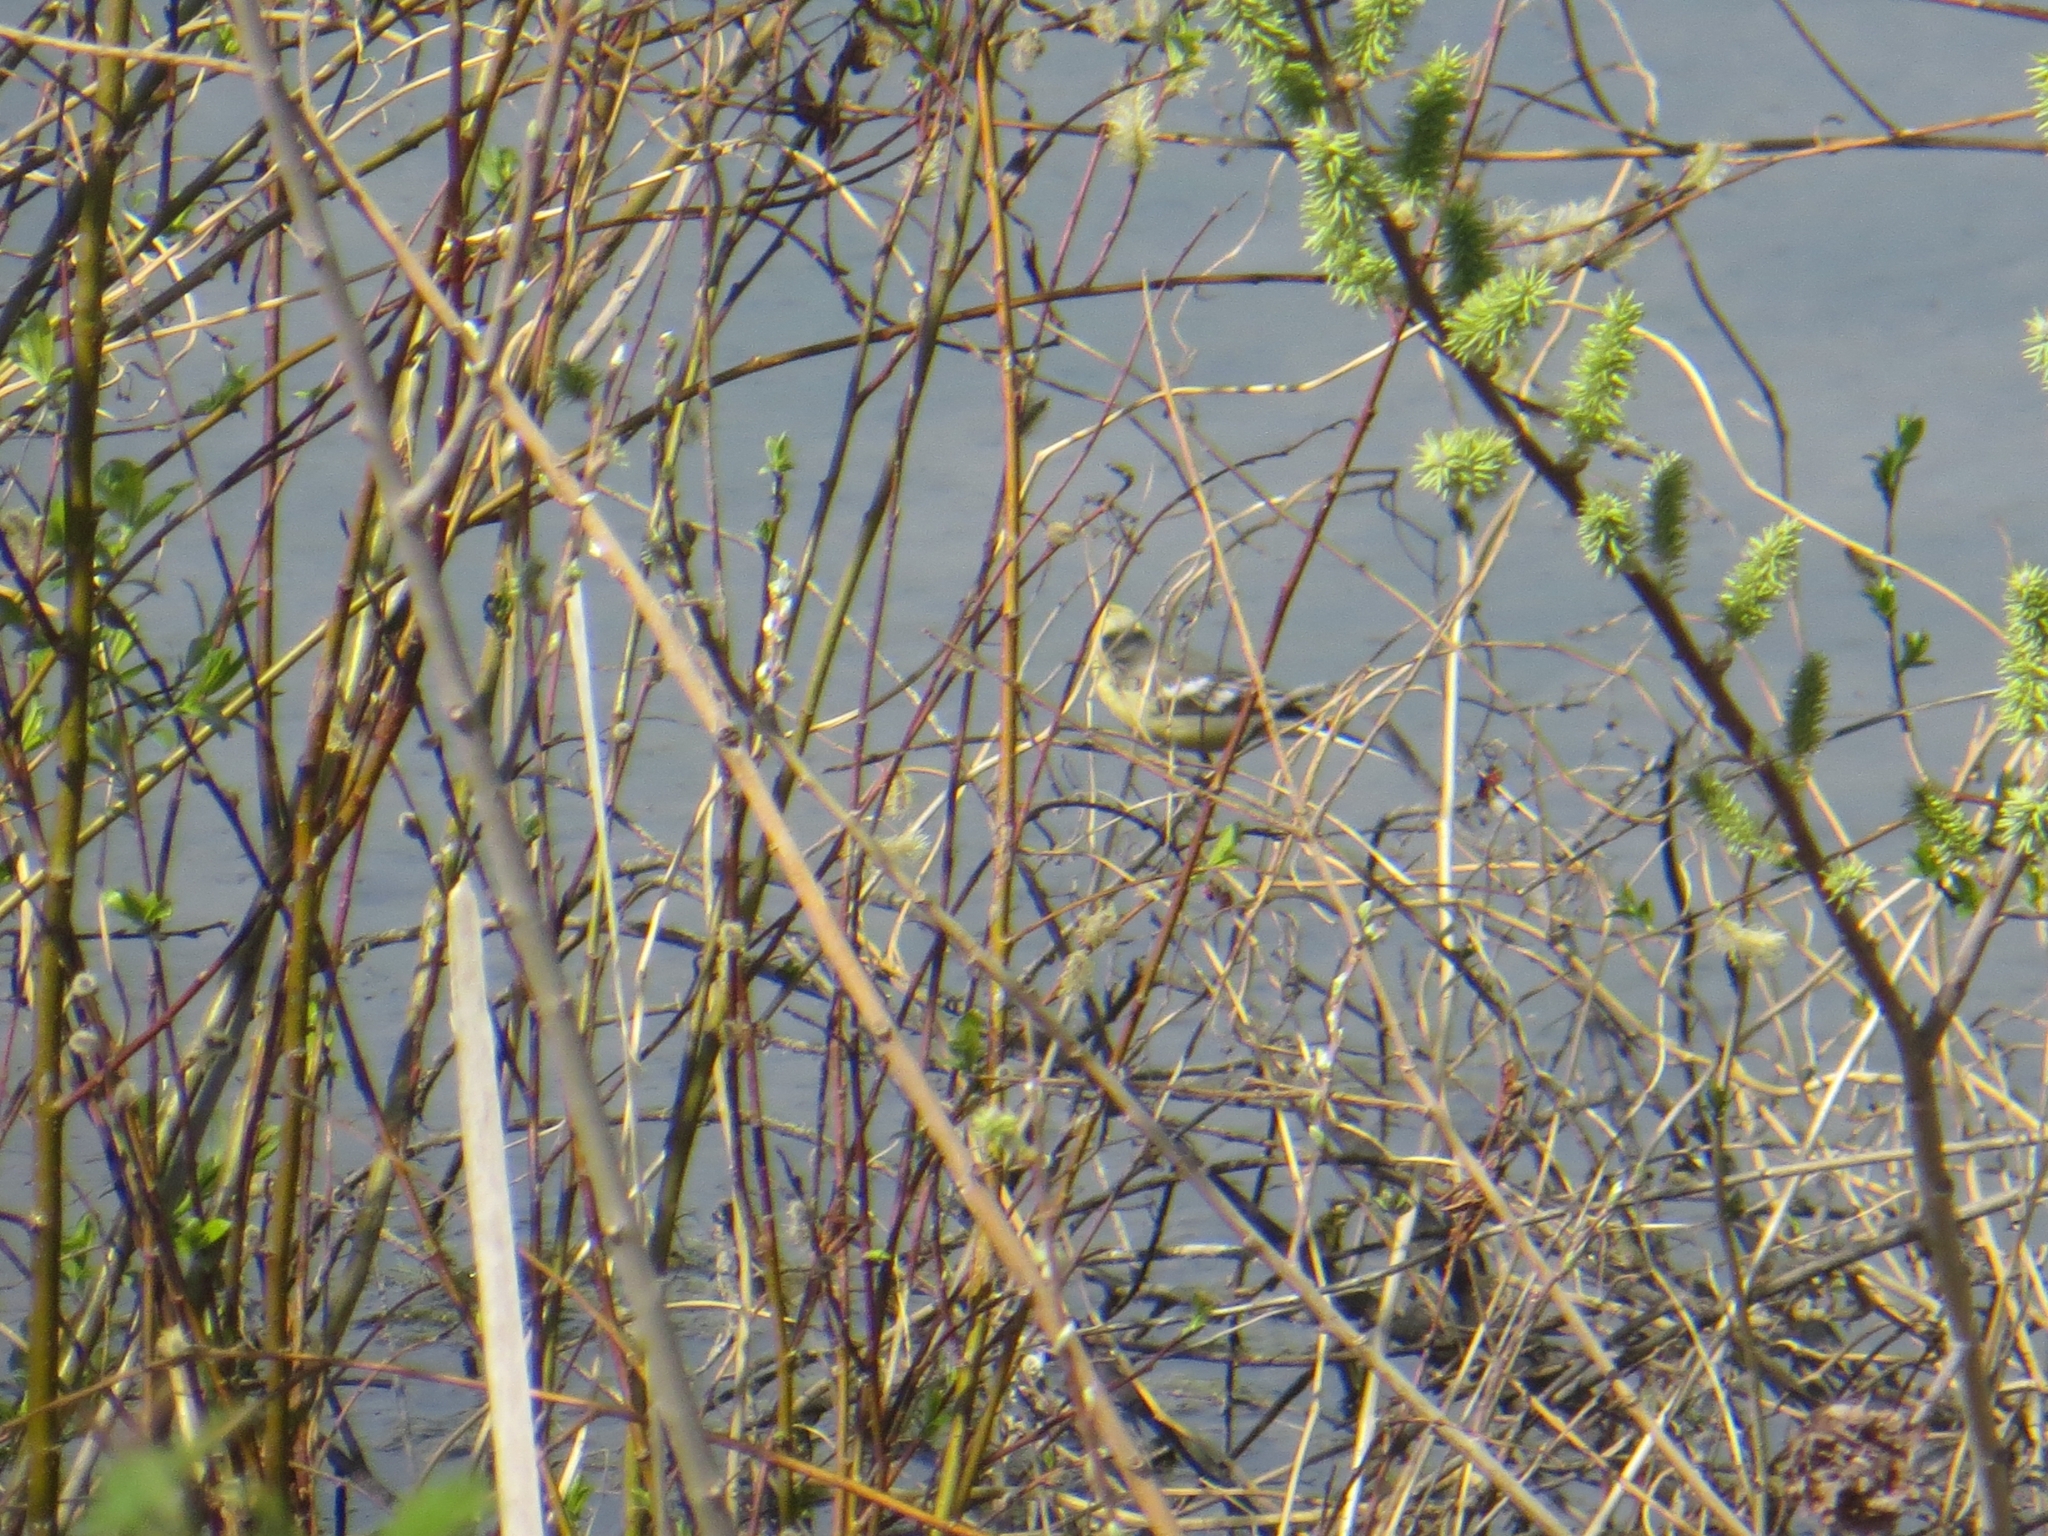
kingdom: Animalia
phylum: Chordata
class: Aves
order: Passeriformes
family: Motacillidae
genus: Motacilla
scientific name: Motacilla citreola
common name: Citrine wagtail
